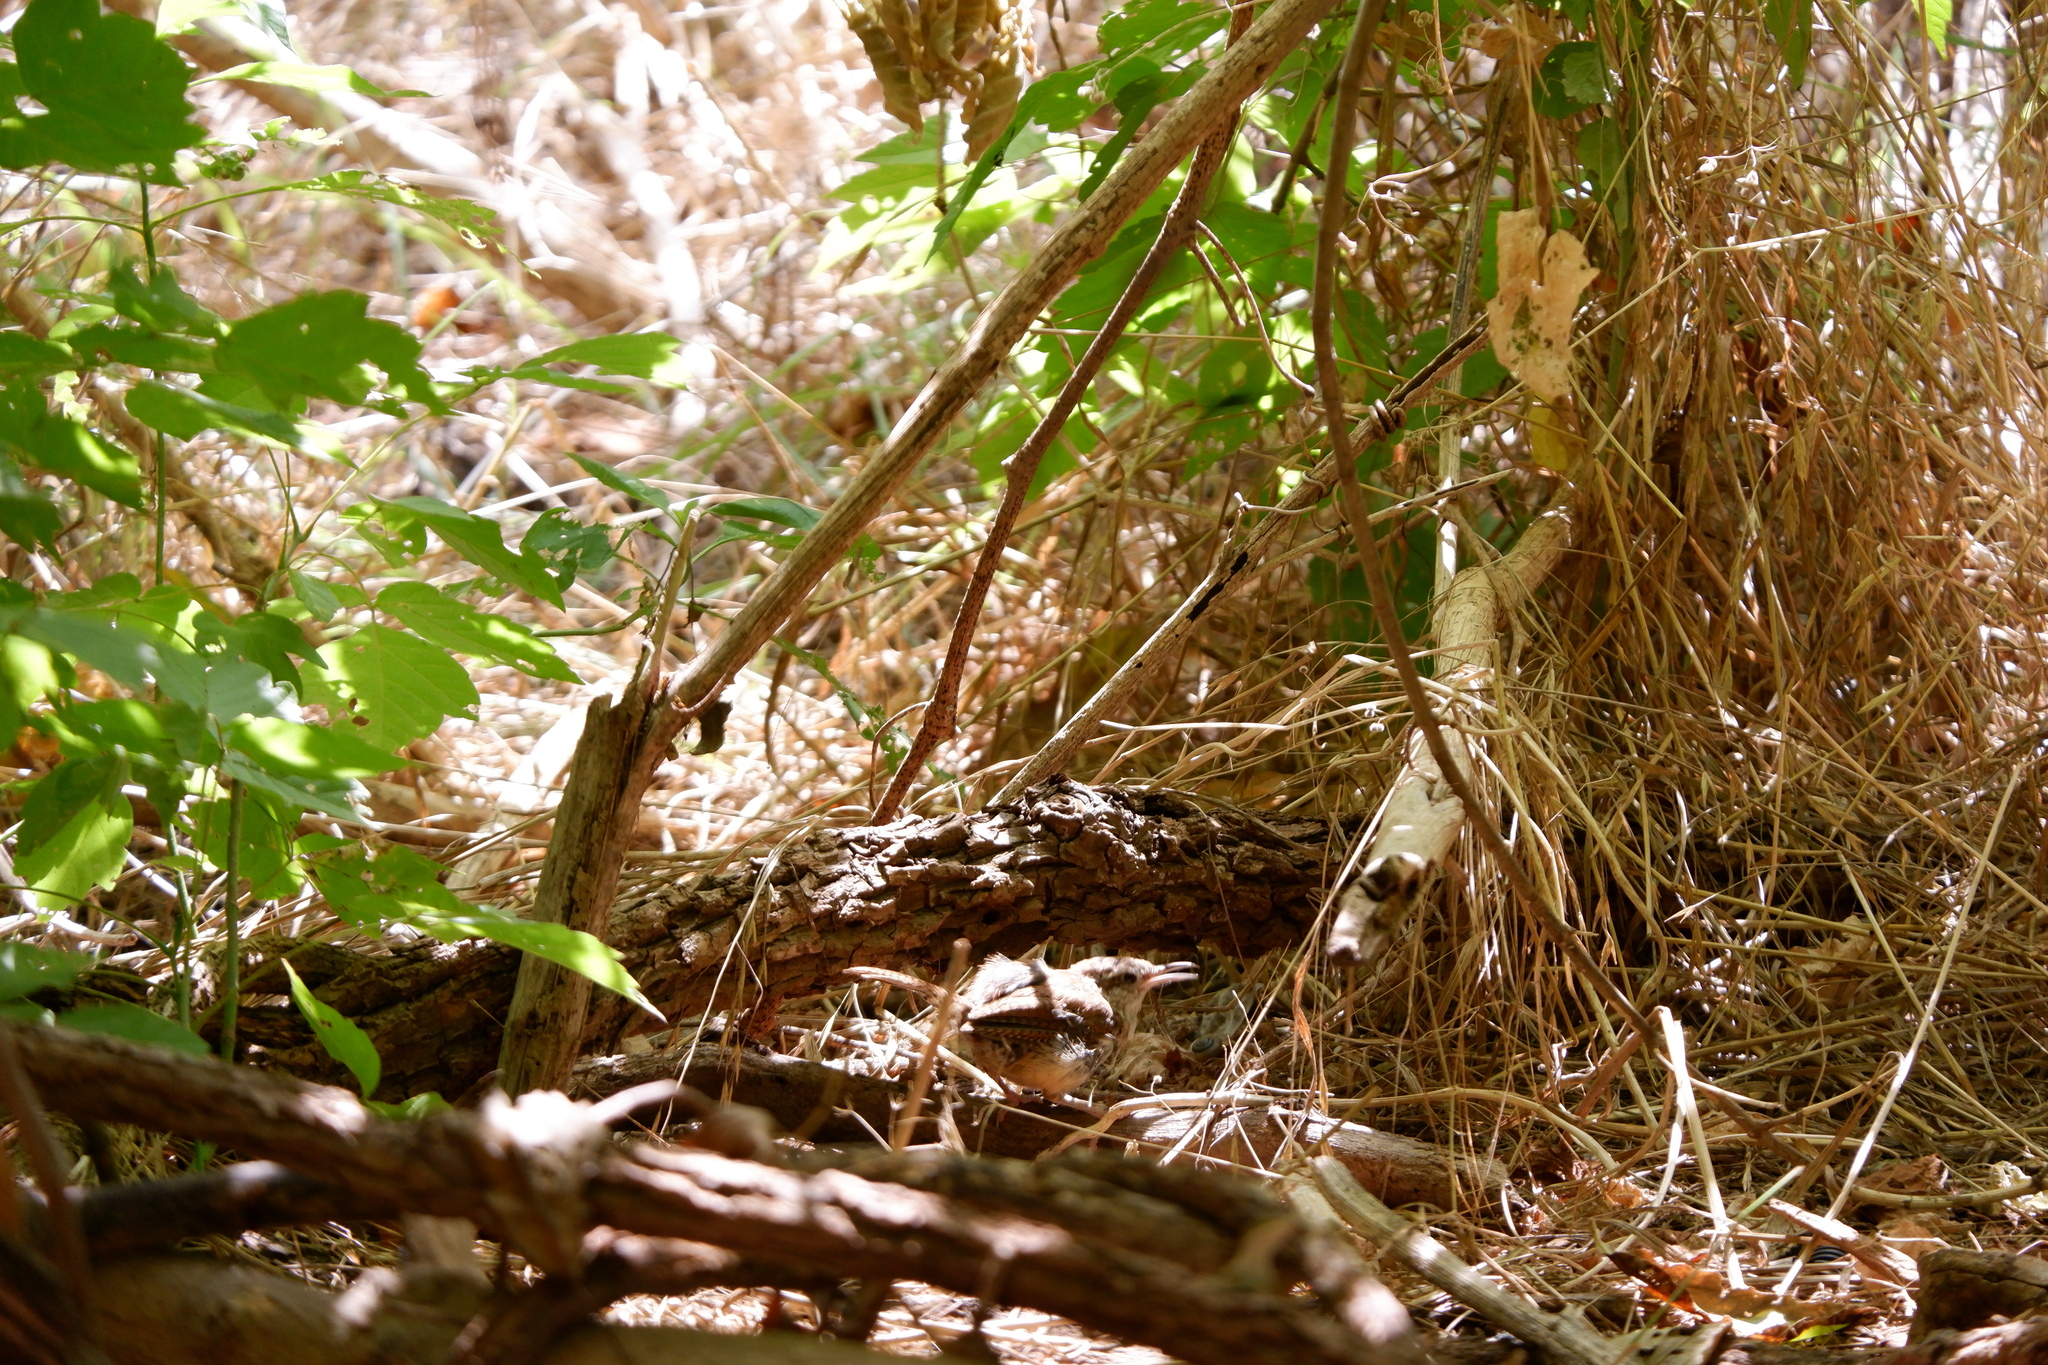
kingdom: Animalia
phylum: Chordata
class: Aves
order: Passeriformes
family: Troglodytidae
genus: Thryothorus
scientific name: Thryothorus ludovicianus
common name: Carolina wren
